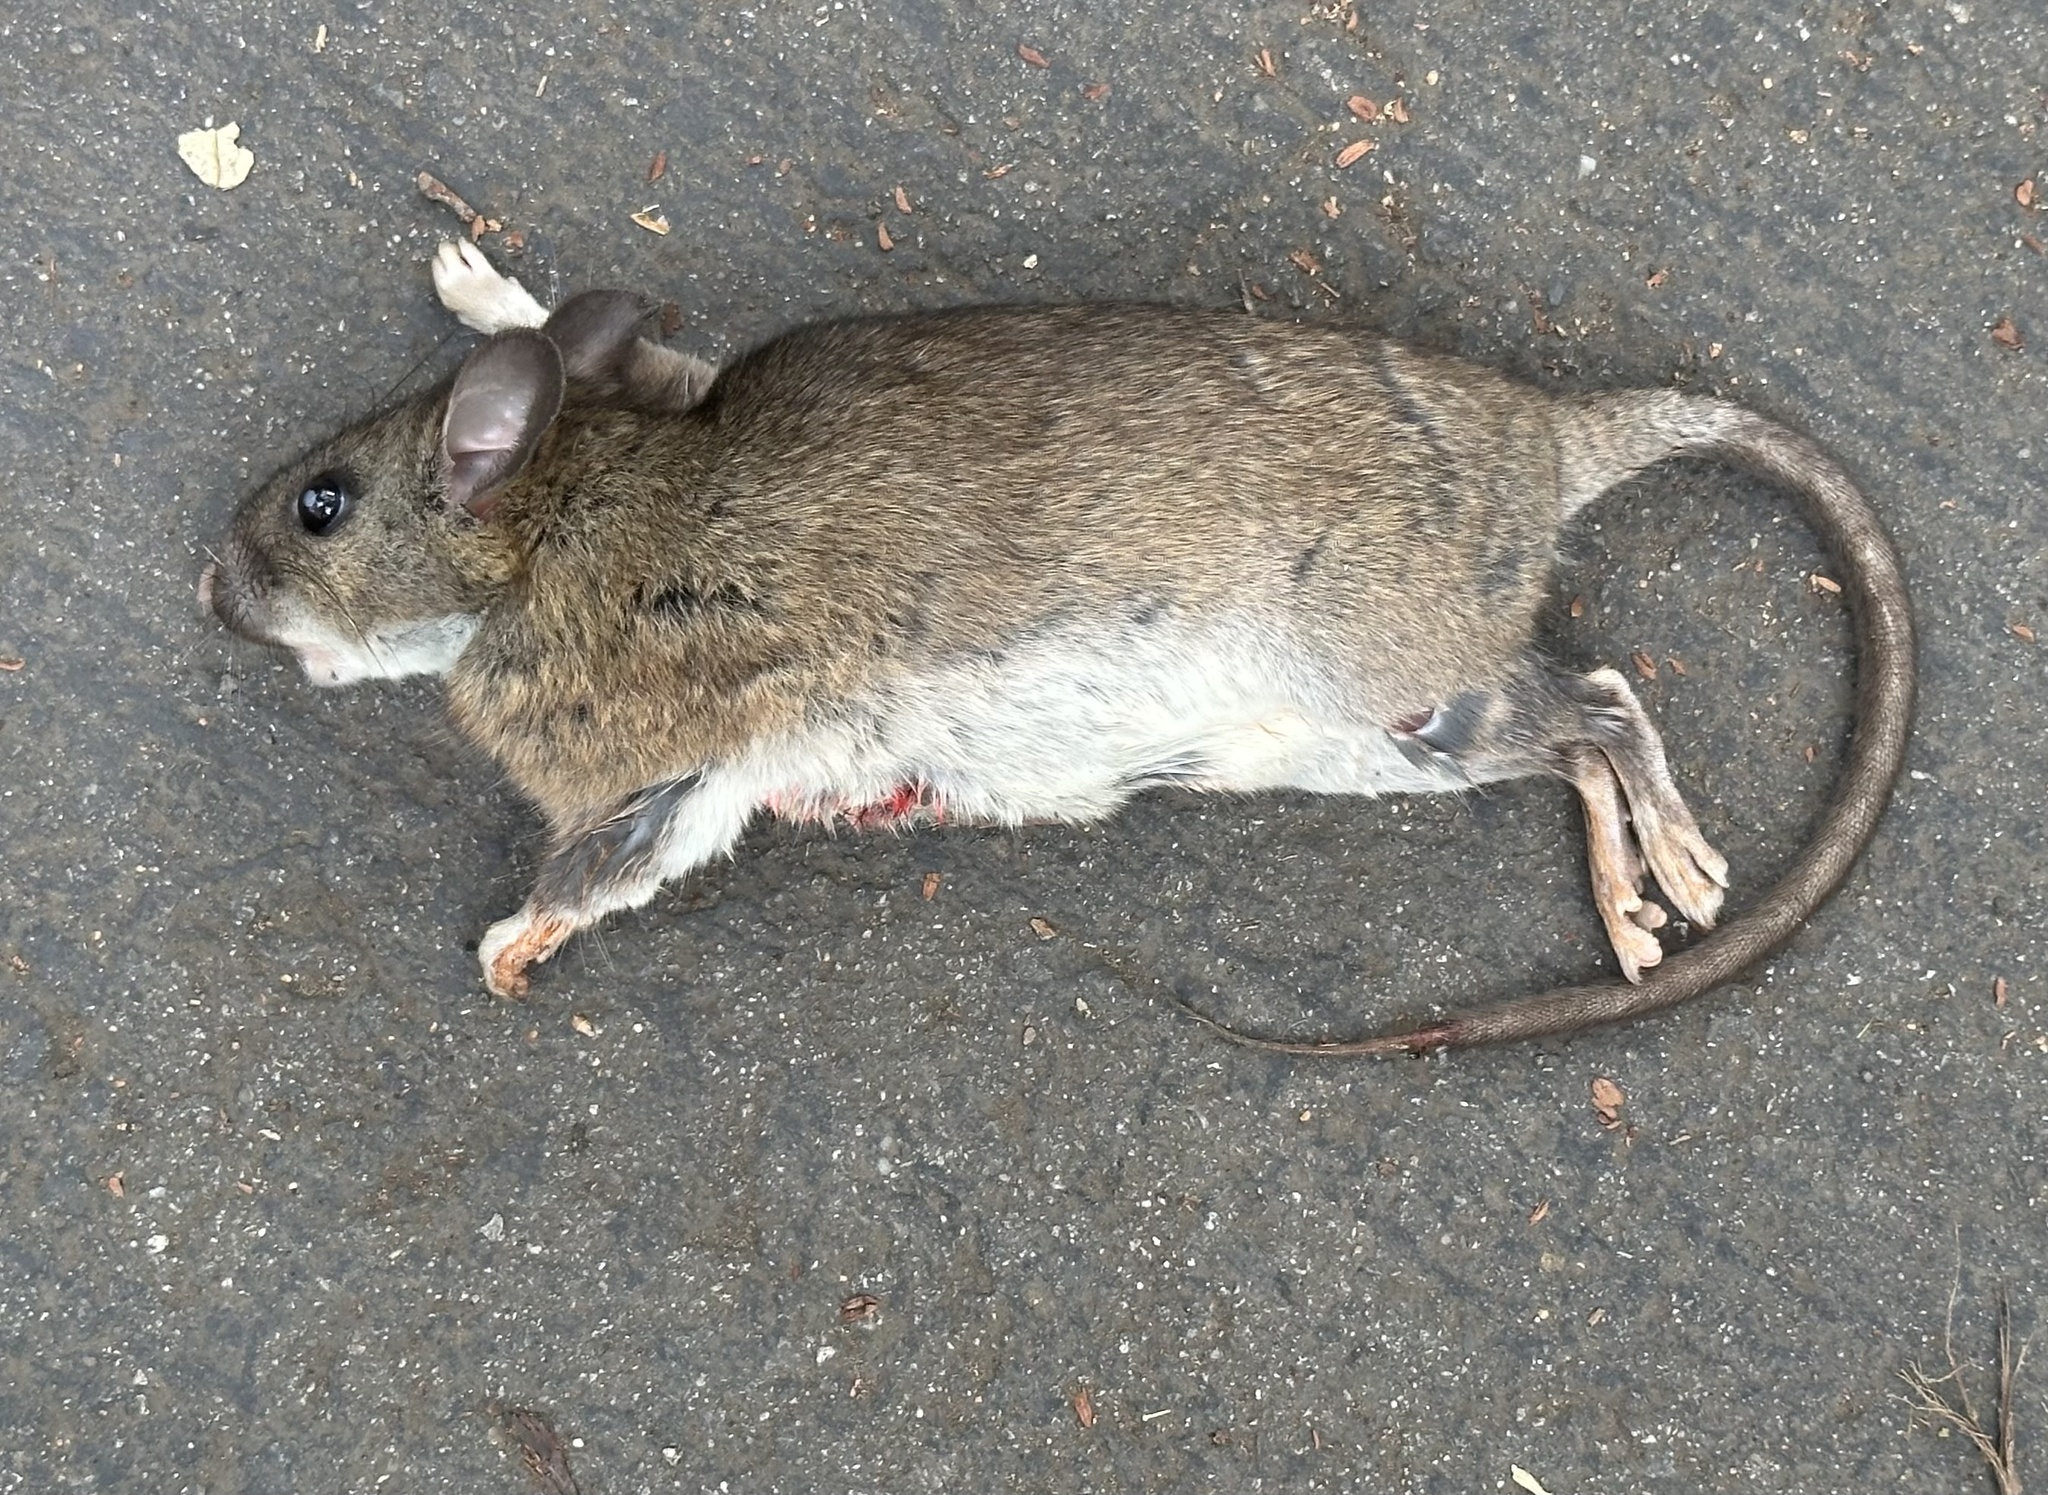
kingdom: Animalia
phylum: Chordata
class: Mammalia
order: Rodentia
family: Muridae
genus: Rattus
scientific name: Rattus norvegicus
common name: Brown rat
